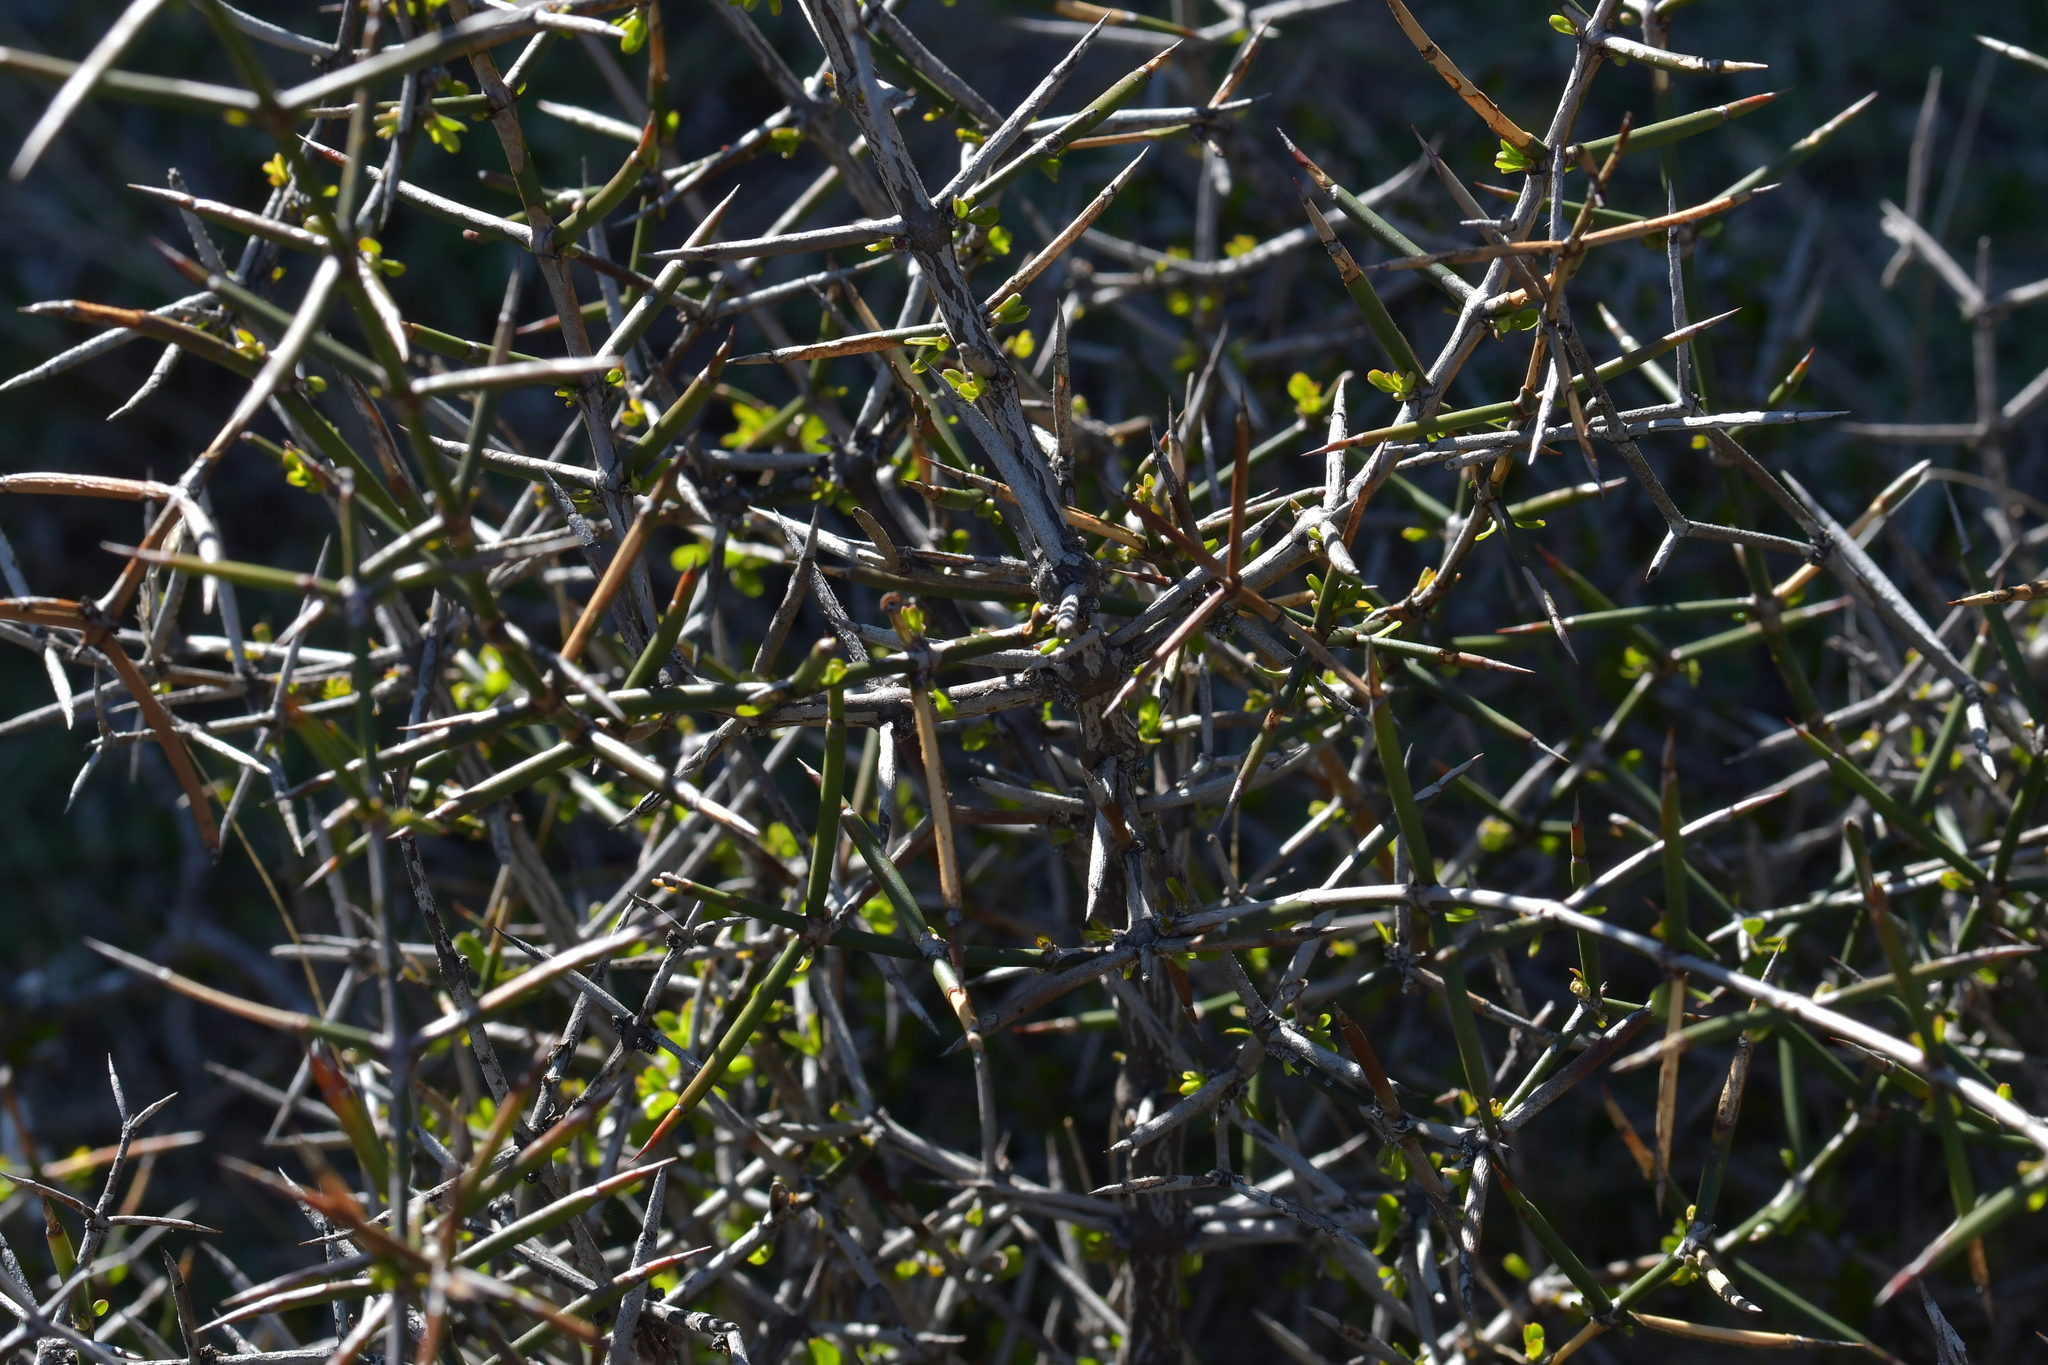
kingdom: Plantae
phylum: Tracheophyta
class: Magnoliopsida
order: Rosales
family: Rhamnaceae
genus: Discaria
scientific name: Discaria toumatou
